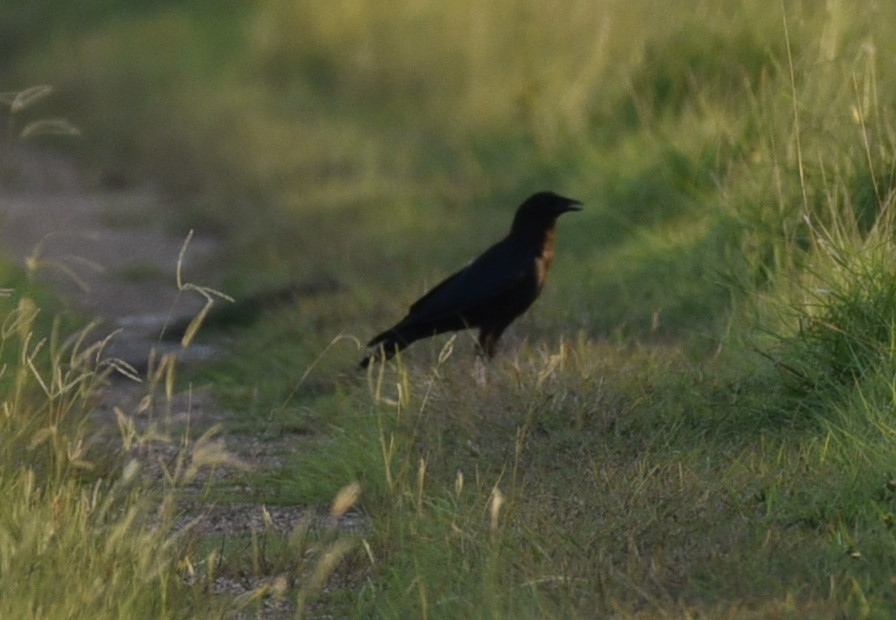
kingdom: Animalia
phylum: Chordata
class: Aves
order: Passeriformes
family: Corvidae
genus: Corvus
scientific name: Corvus brachyrhynchos
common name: American crow
